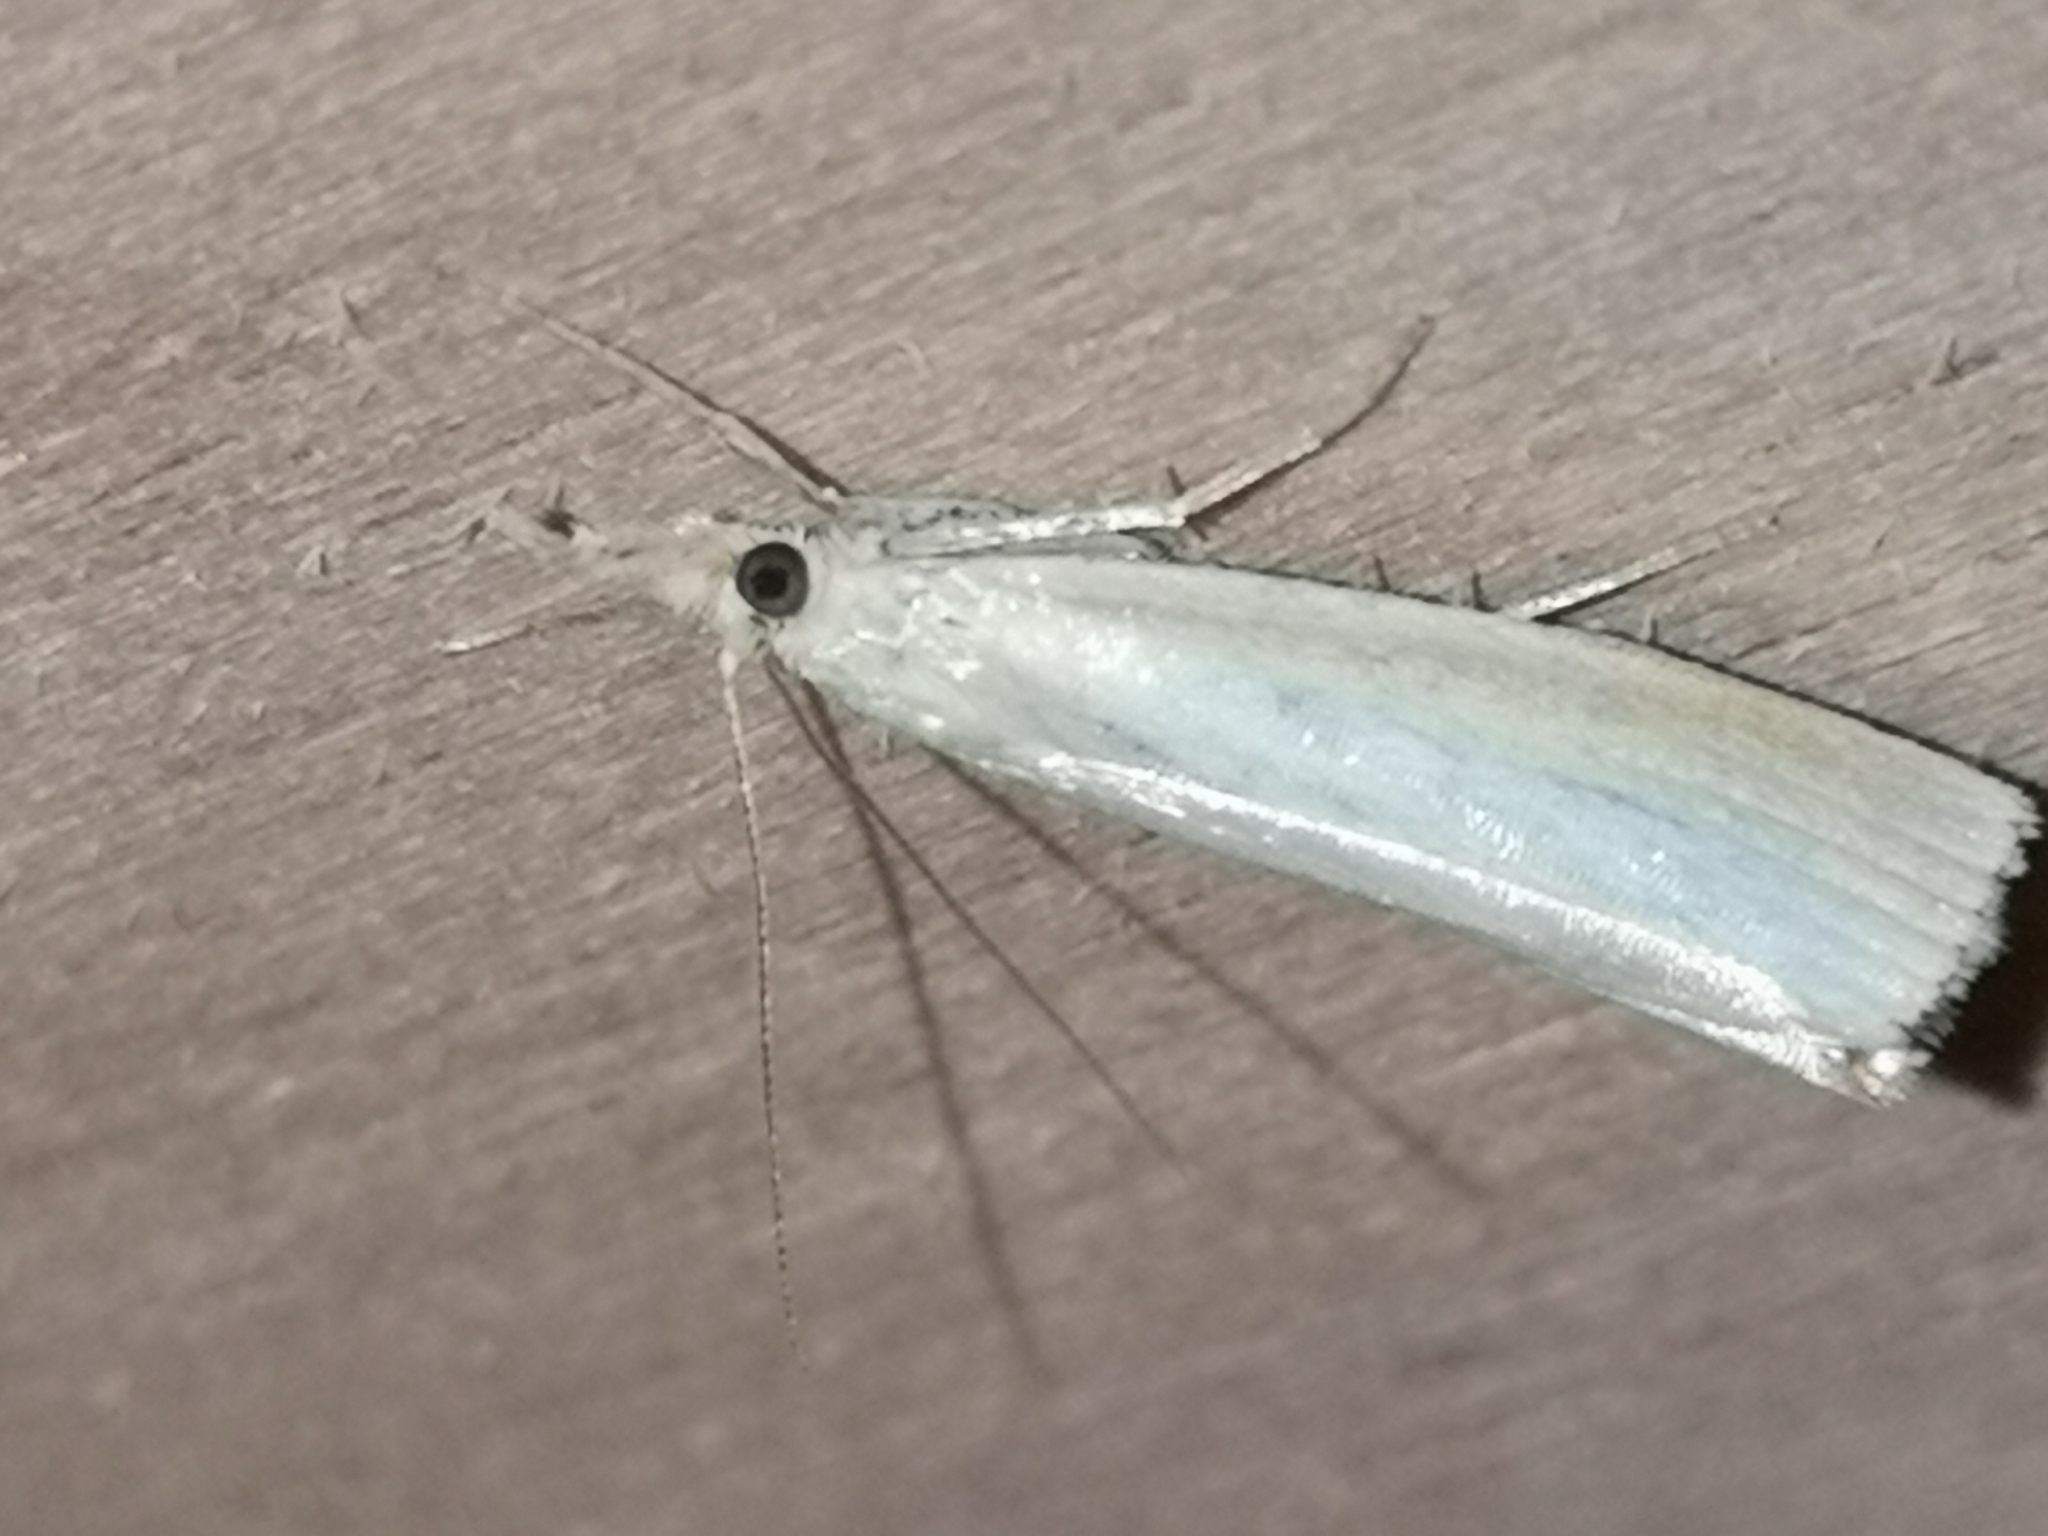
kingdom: Animalia
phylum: Arthropoda
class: Insecta
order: Lepidoptera
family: Crambidae
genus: Agriphila
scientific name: Agriphila straminella
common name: Straw grass-veneer
